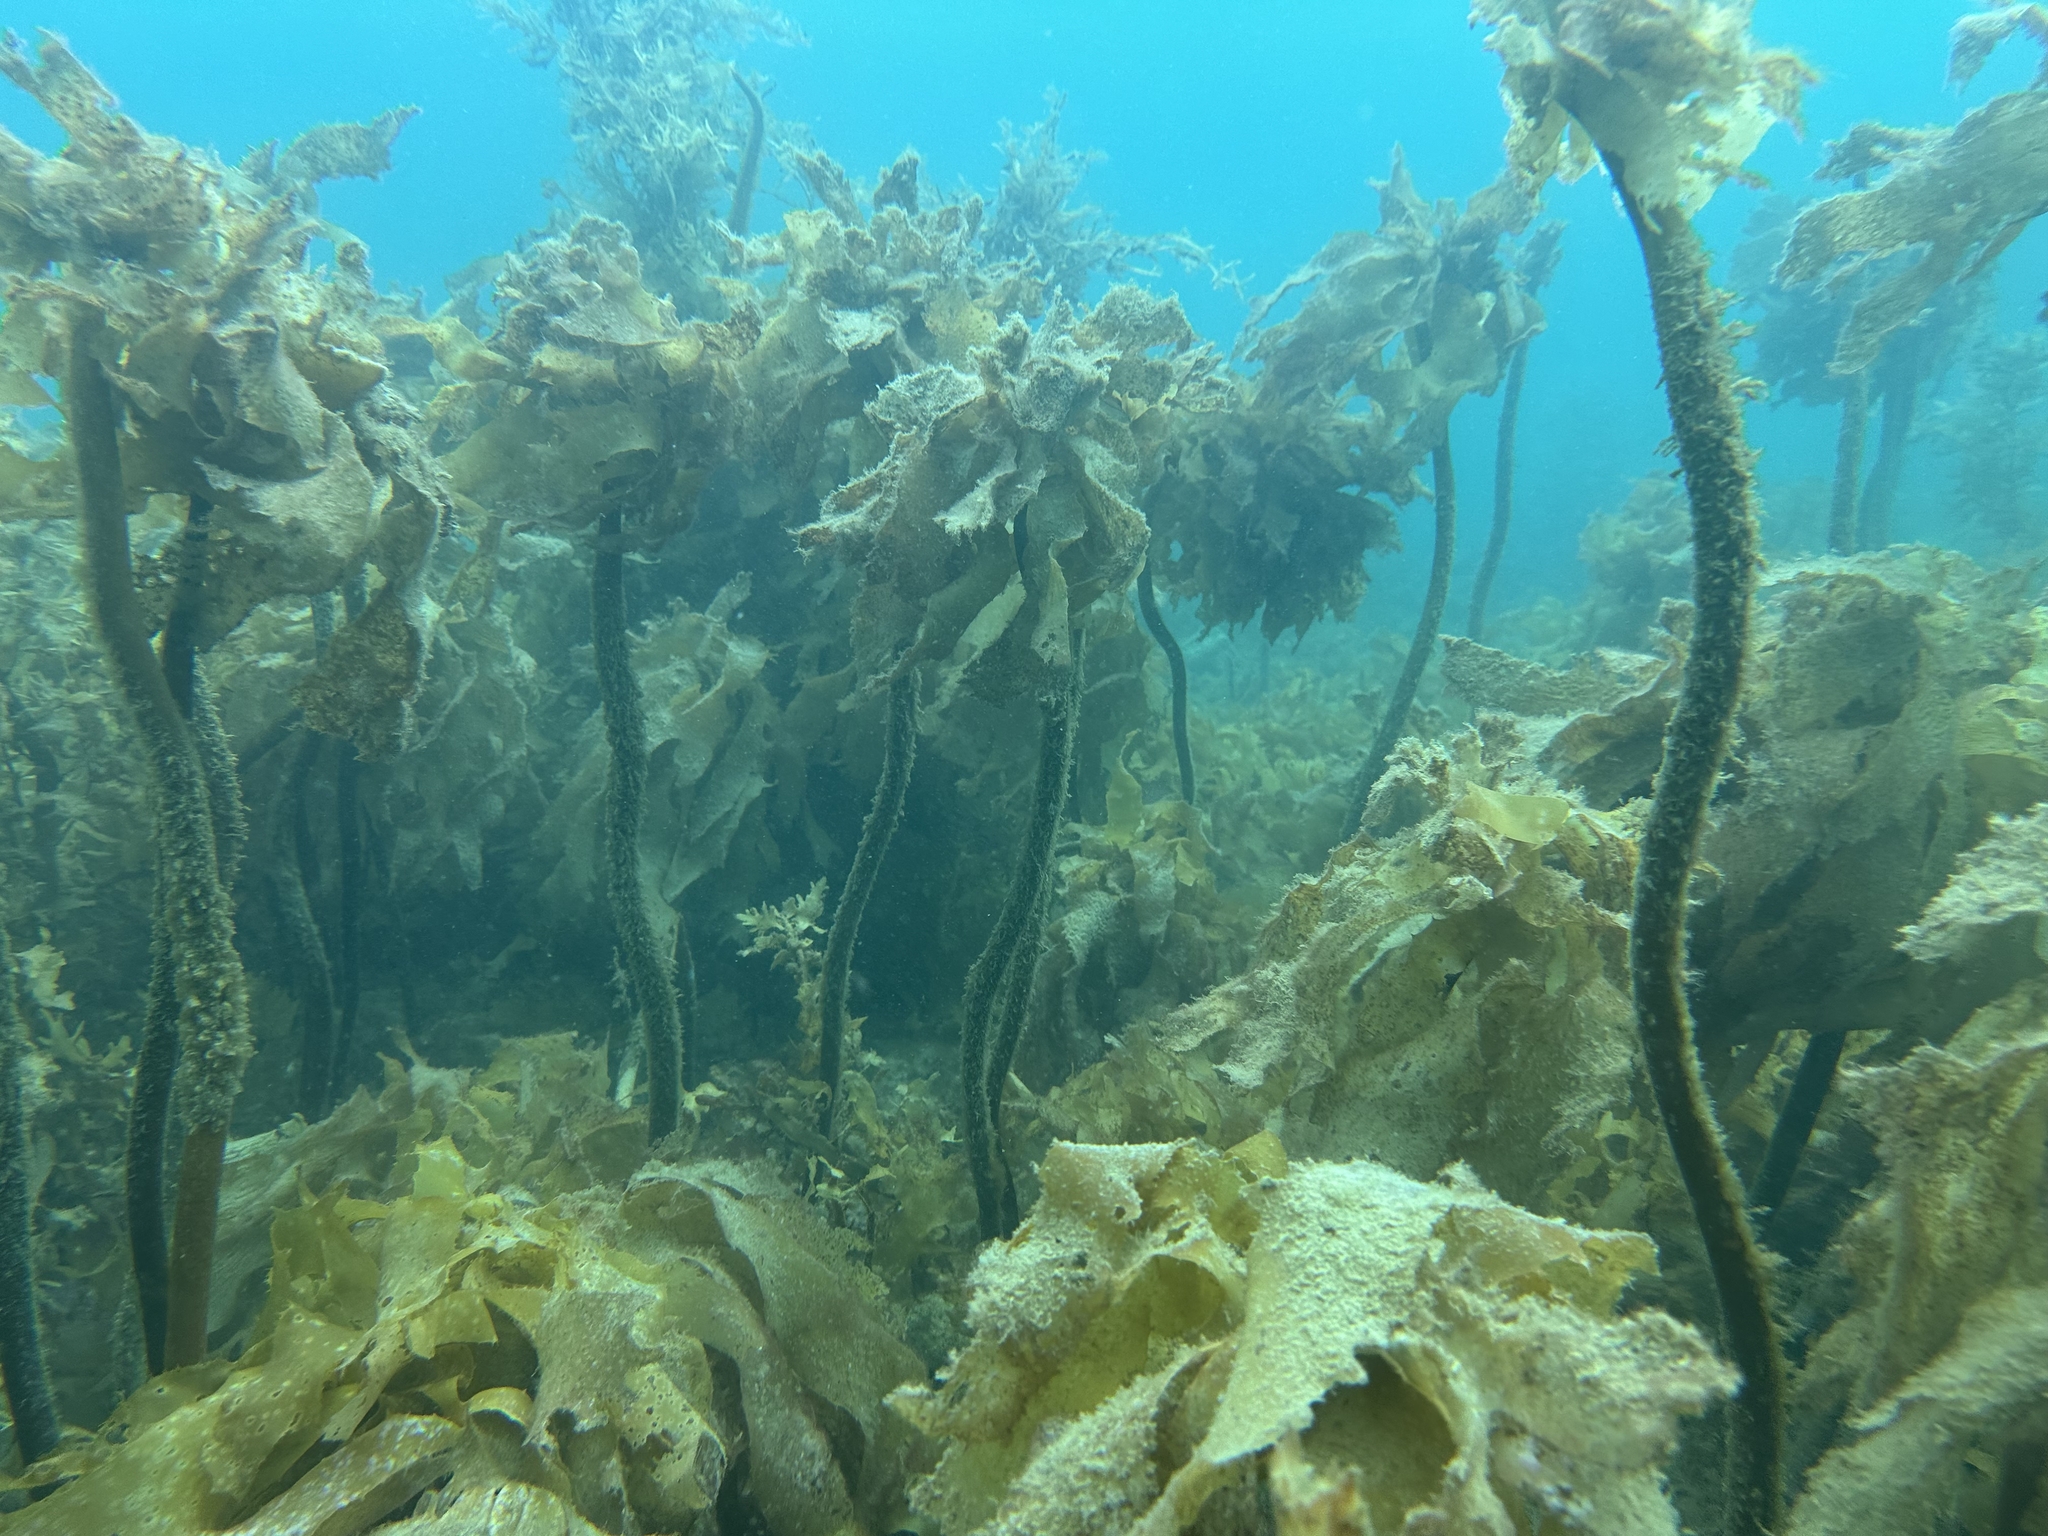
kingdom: Chromista
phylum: Ochrophyta
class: Phaeophyceae
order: Laminariales
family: Lessoniaceae
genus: Ecklonia
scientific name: Ecklonia radiata
